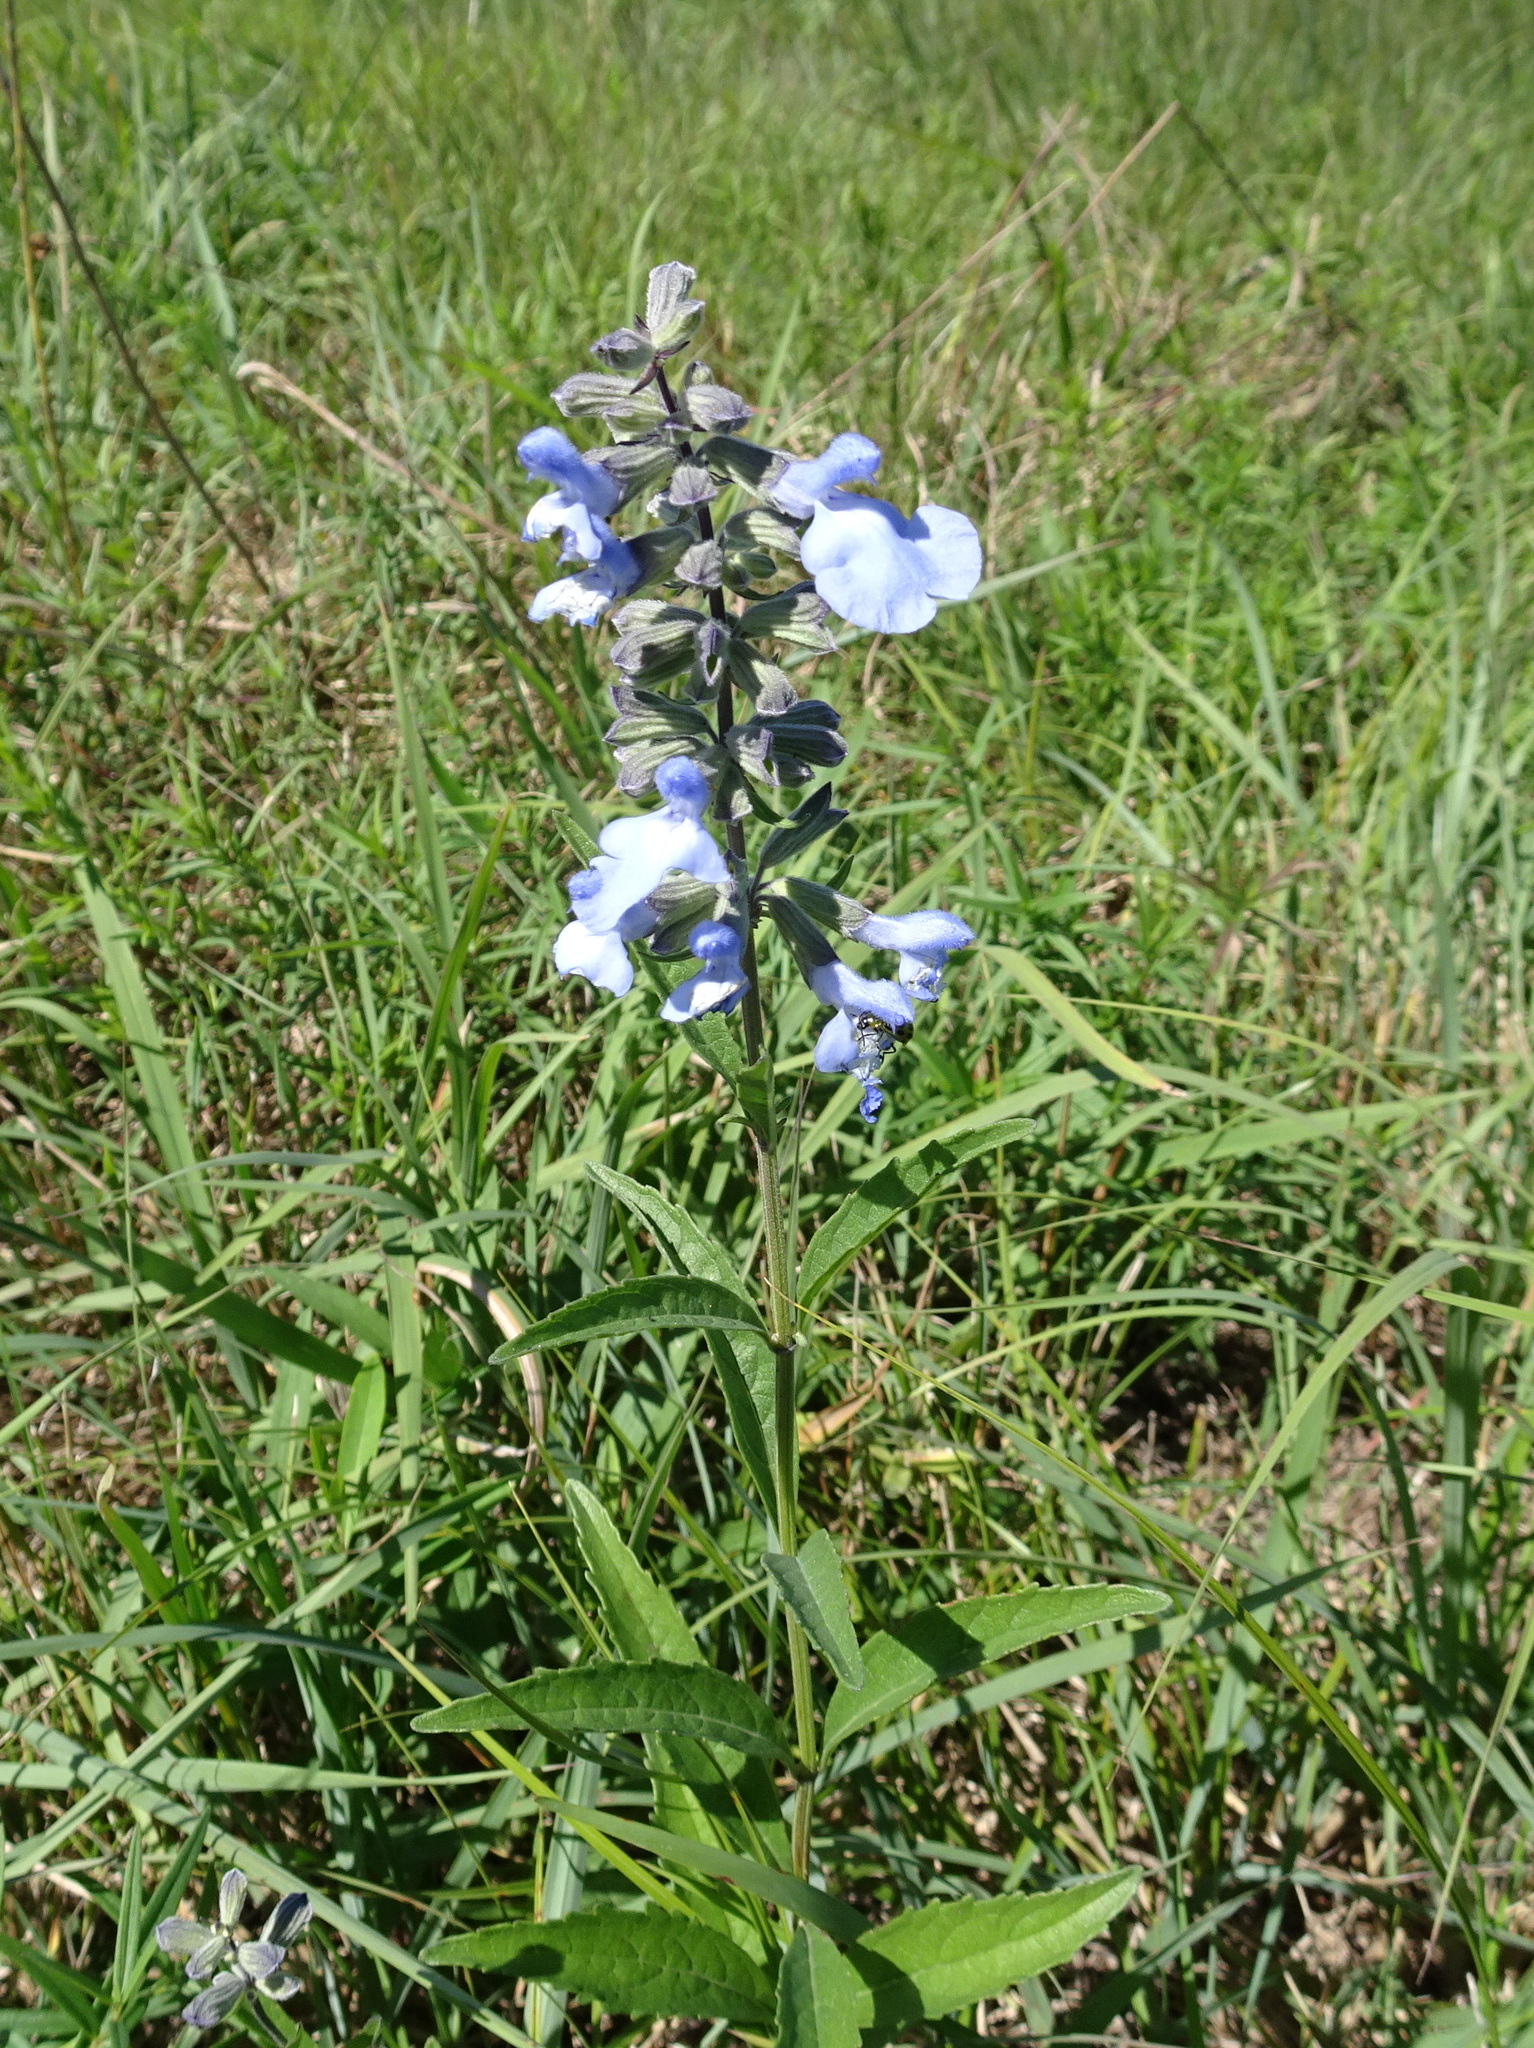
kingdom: Plantae
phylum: Tracheophyta
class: Magnoliopsida
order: Lamiales
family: Lamiaceae
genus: Salvia
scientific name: Salvia azurea
